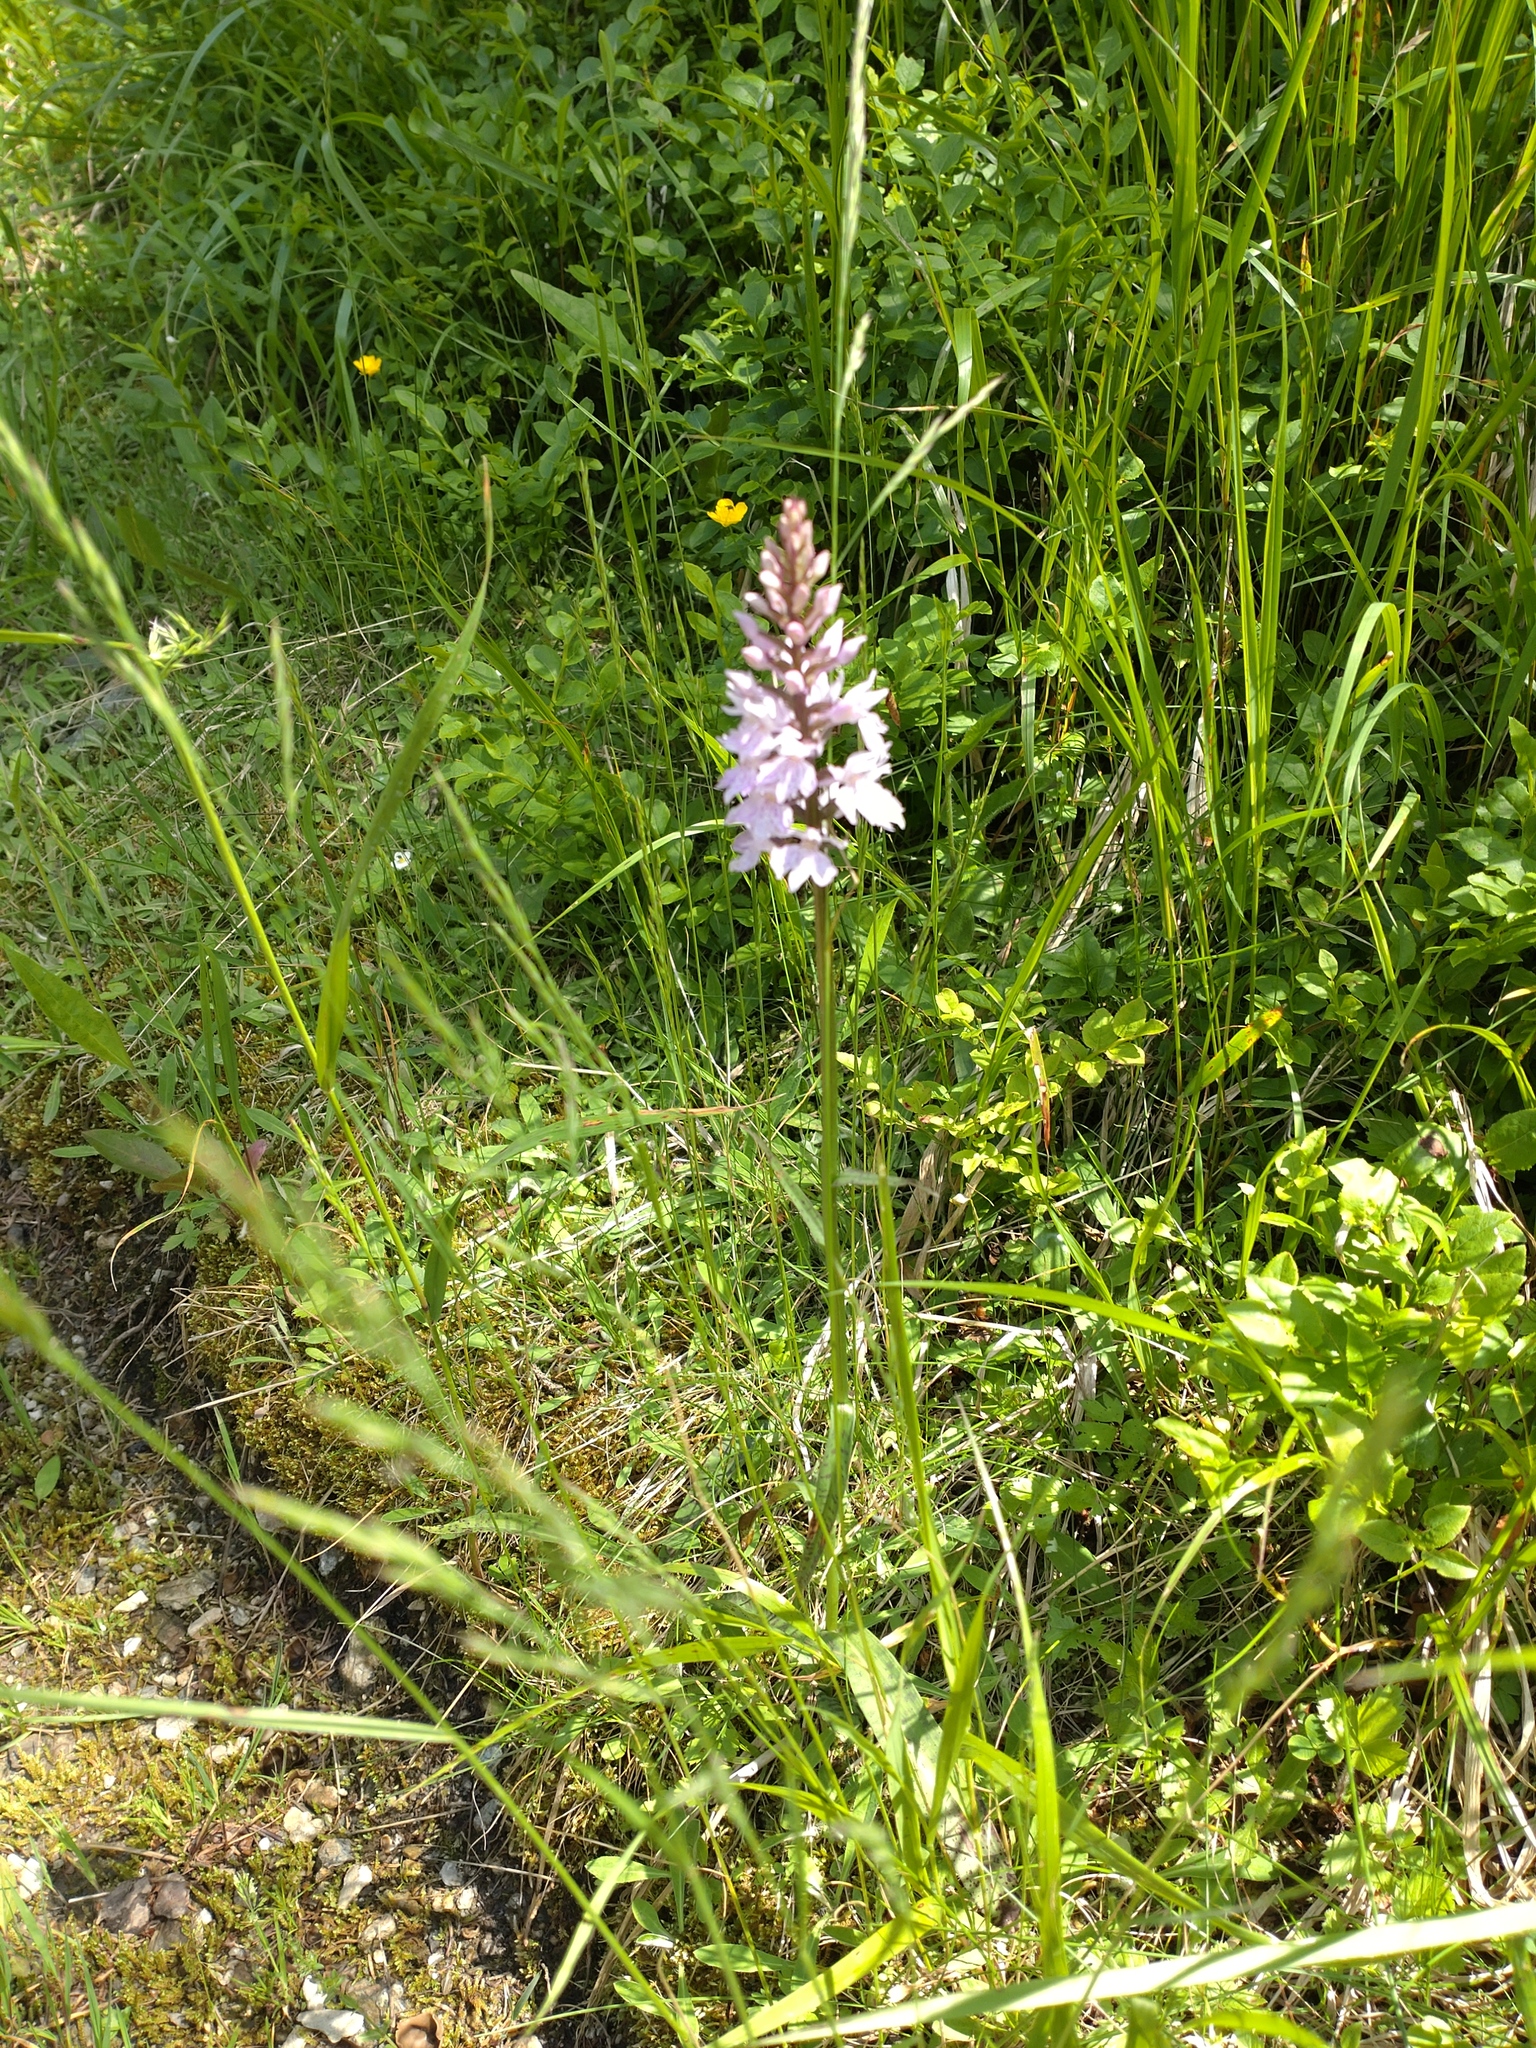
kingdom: Plantae
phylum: Tracheophyta
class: Liliopsida
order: Asparagales
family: Orchidaceae
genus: Dactylorhiza
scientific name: Dactylorhiza maculata
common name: Heath spotted-orchid
